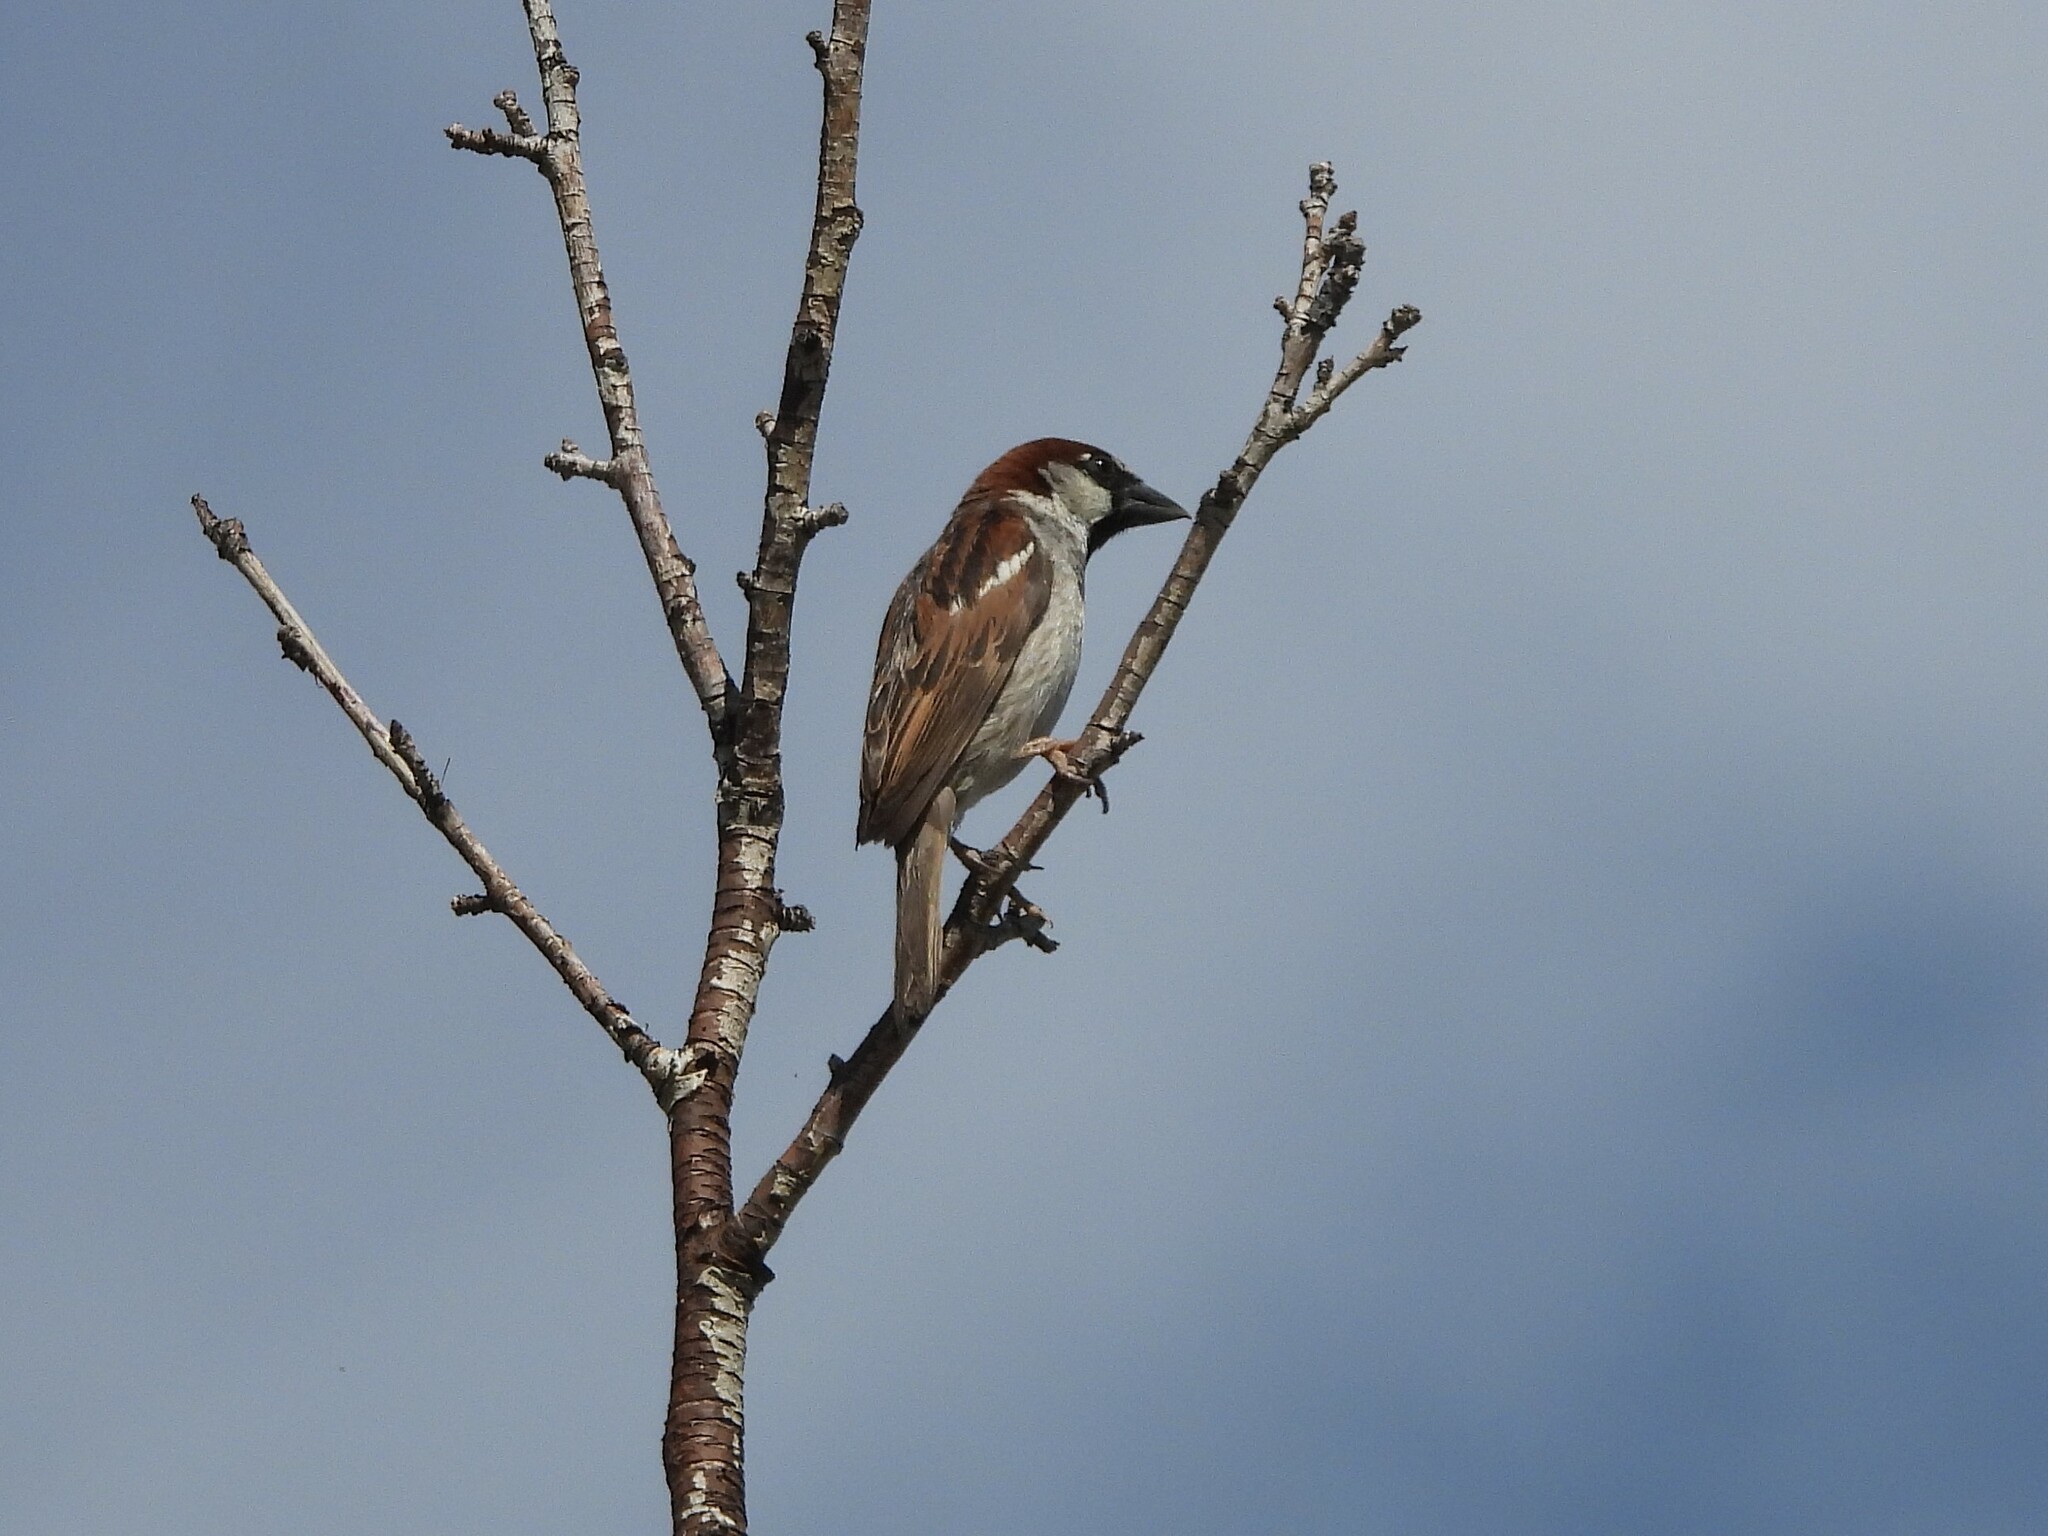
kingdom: Animalia
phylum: Chordata
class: Aves
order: Passeriformes
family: Passeridae
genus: Passer
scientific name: Passer domesticus
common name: House sparrow
